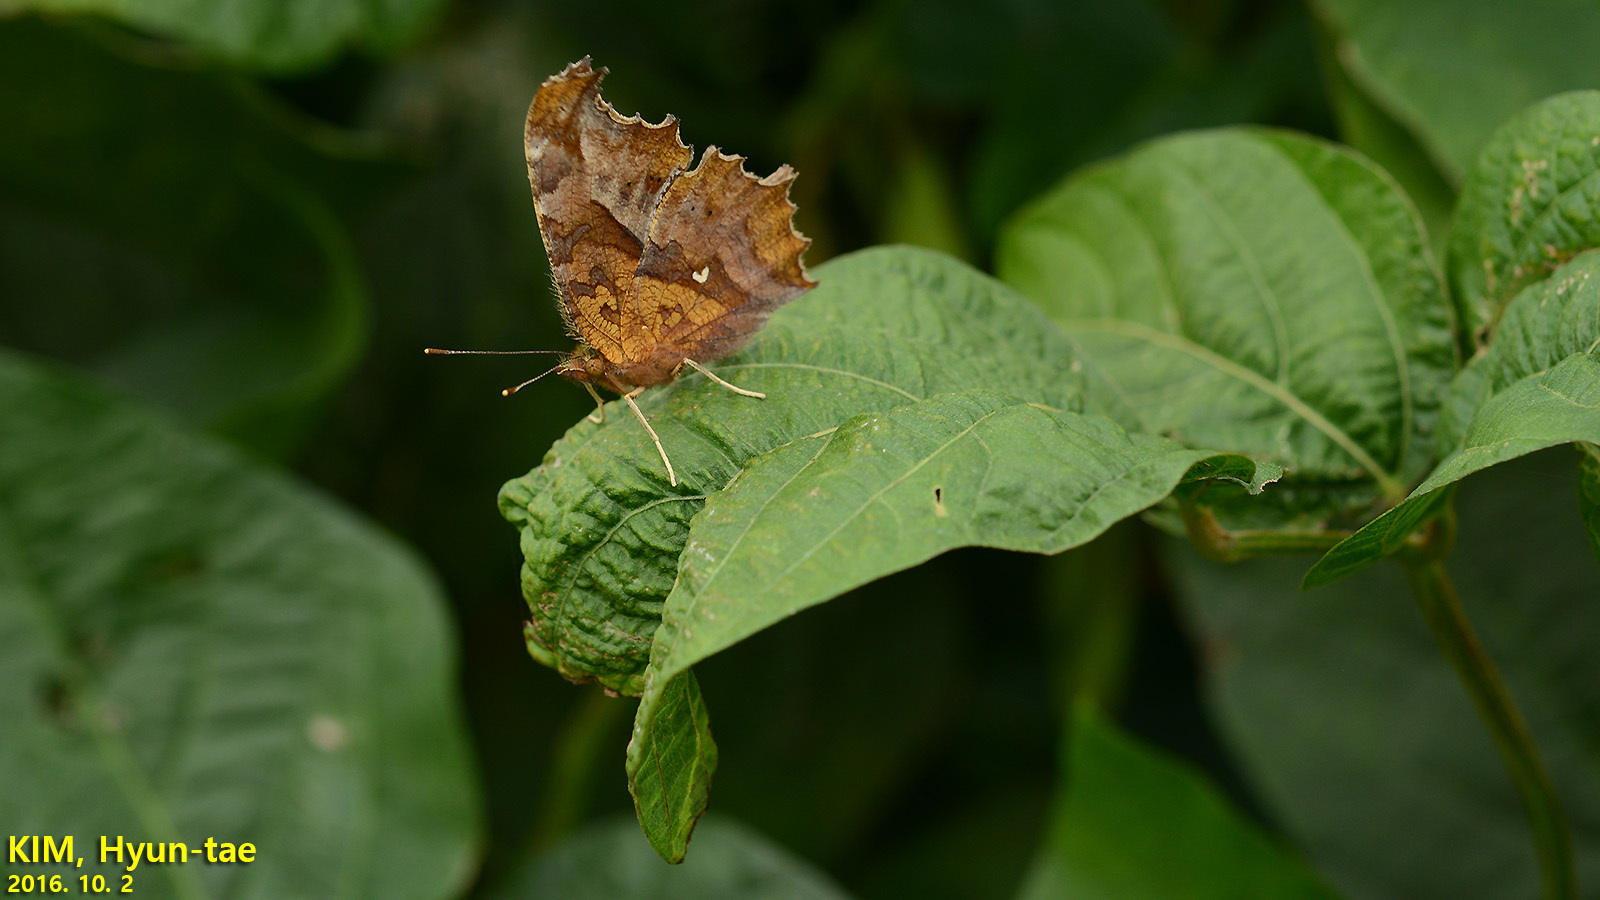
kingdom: Animalia
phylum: Arthropoda
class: Insecta
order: Lepidoptera
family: Nymphalidae
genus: Polygonia
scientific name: Polygonia c-aureum
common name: Asian comma
